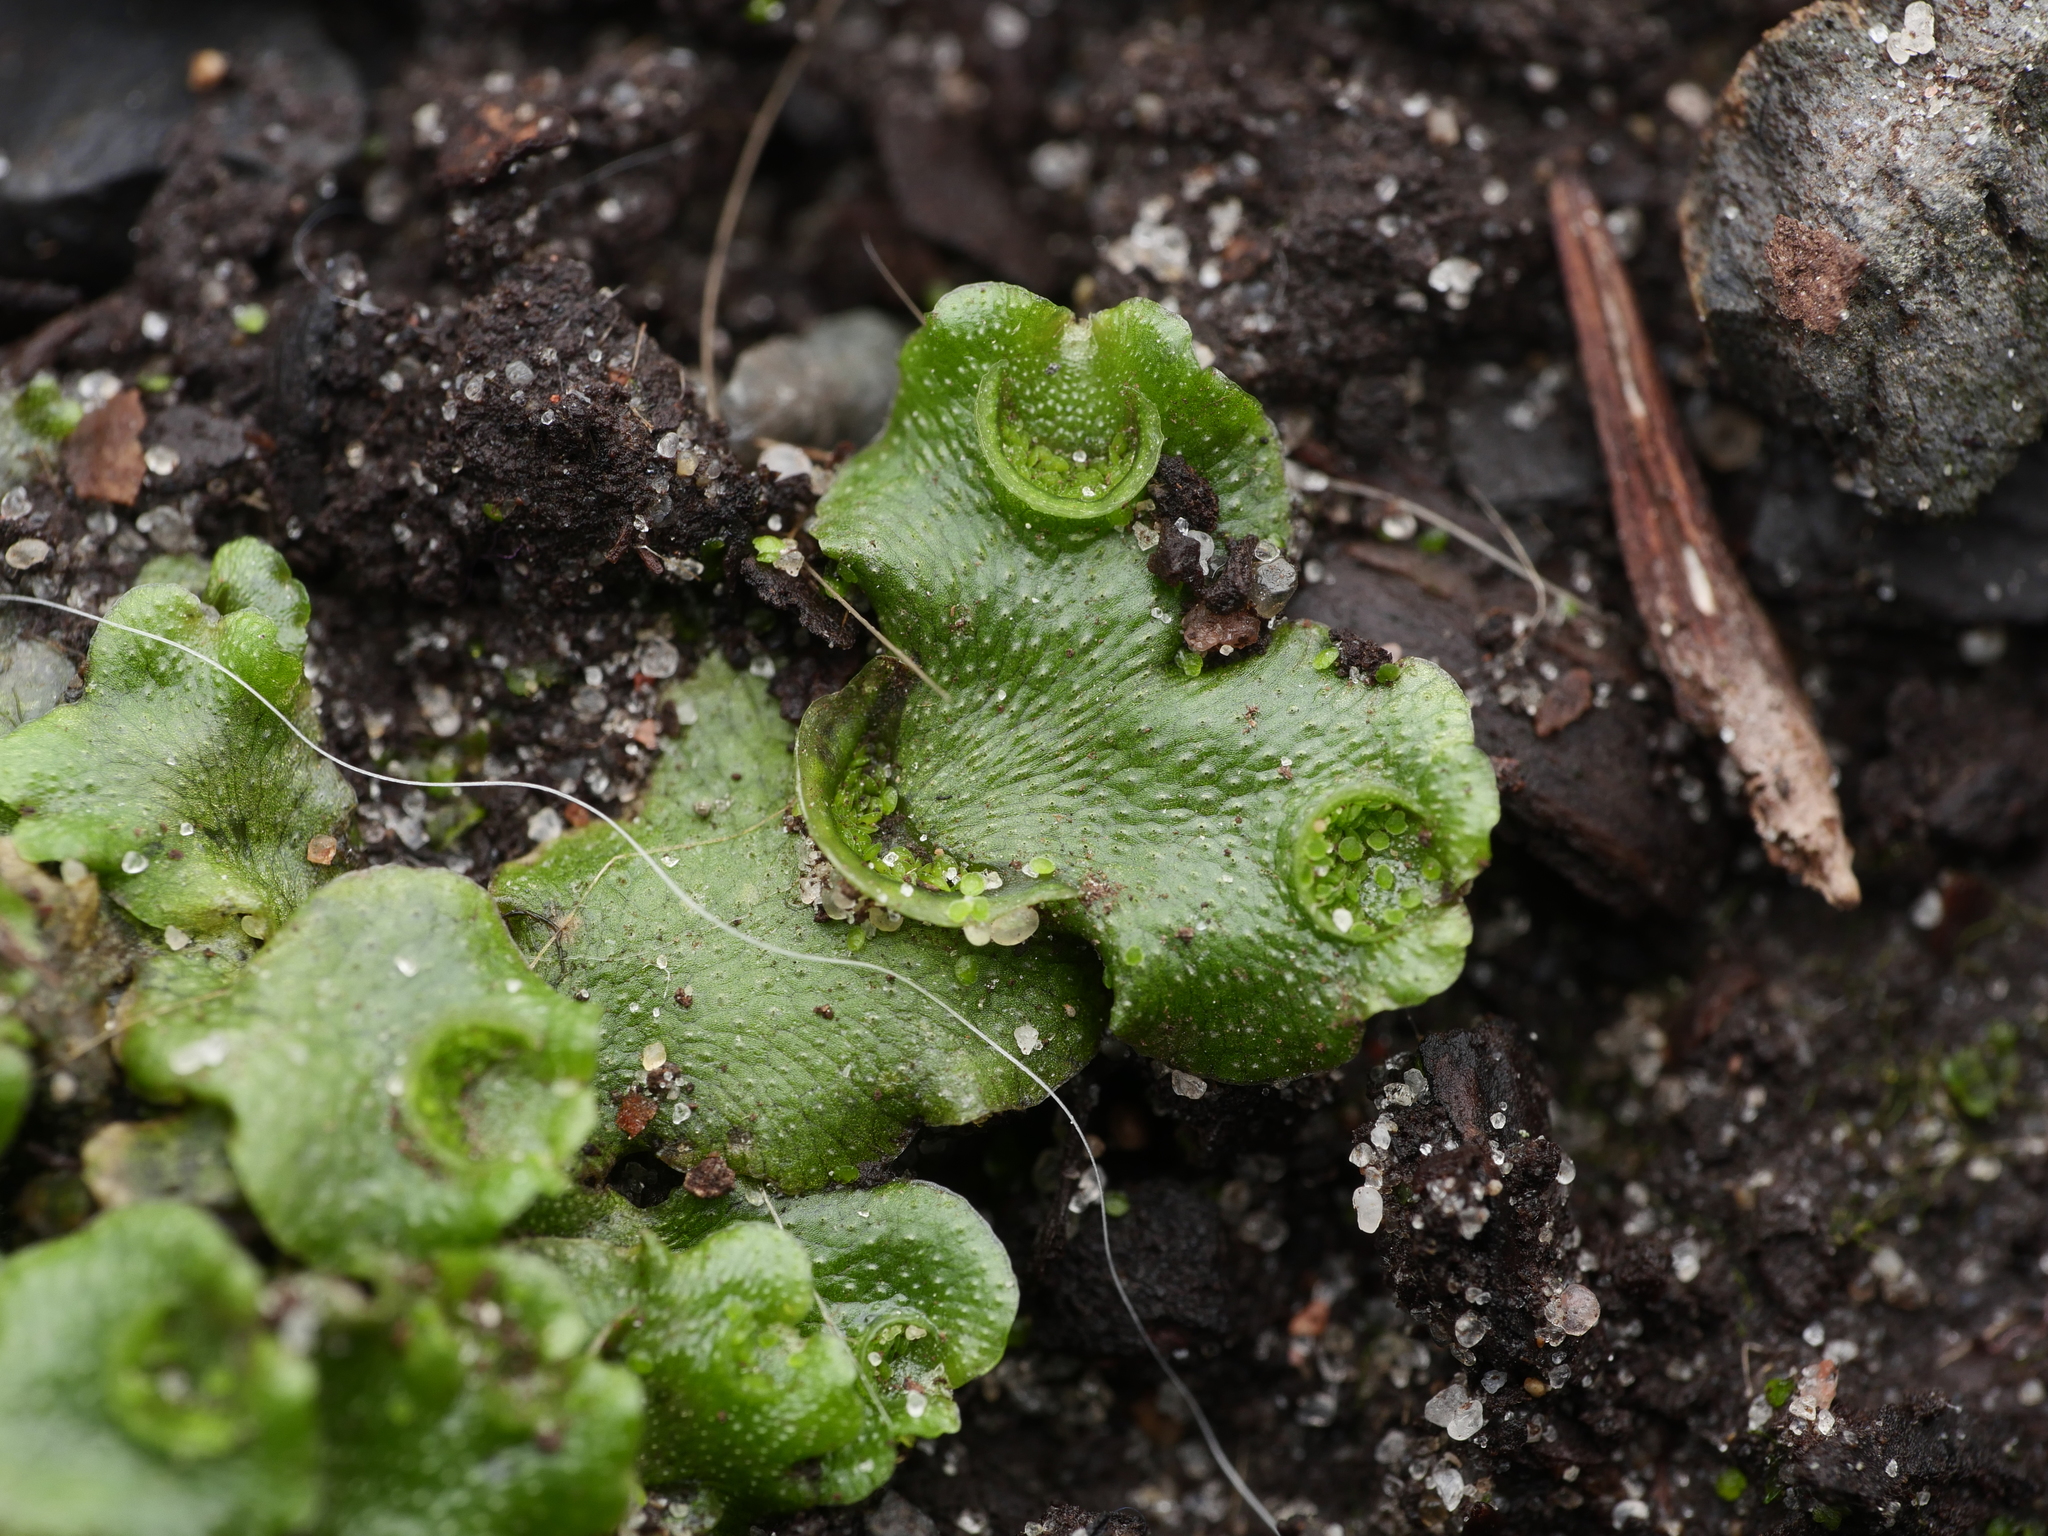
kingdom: Plantae
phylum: Marchantiophyta
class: Marchantiopsida
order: Lunulariales
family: Lunulariaceae
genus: Lunularia
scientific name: Lunularia cruciata
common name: Crescent-cup liverwort
